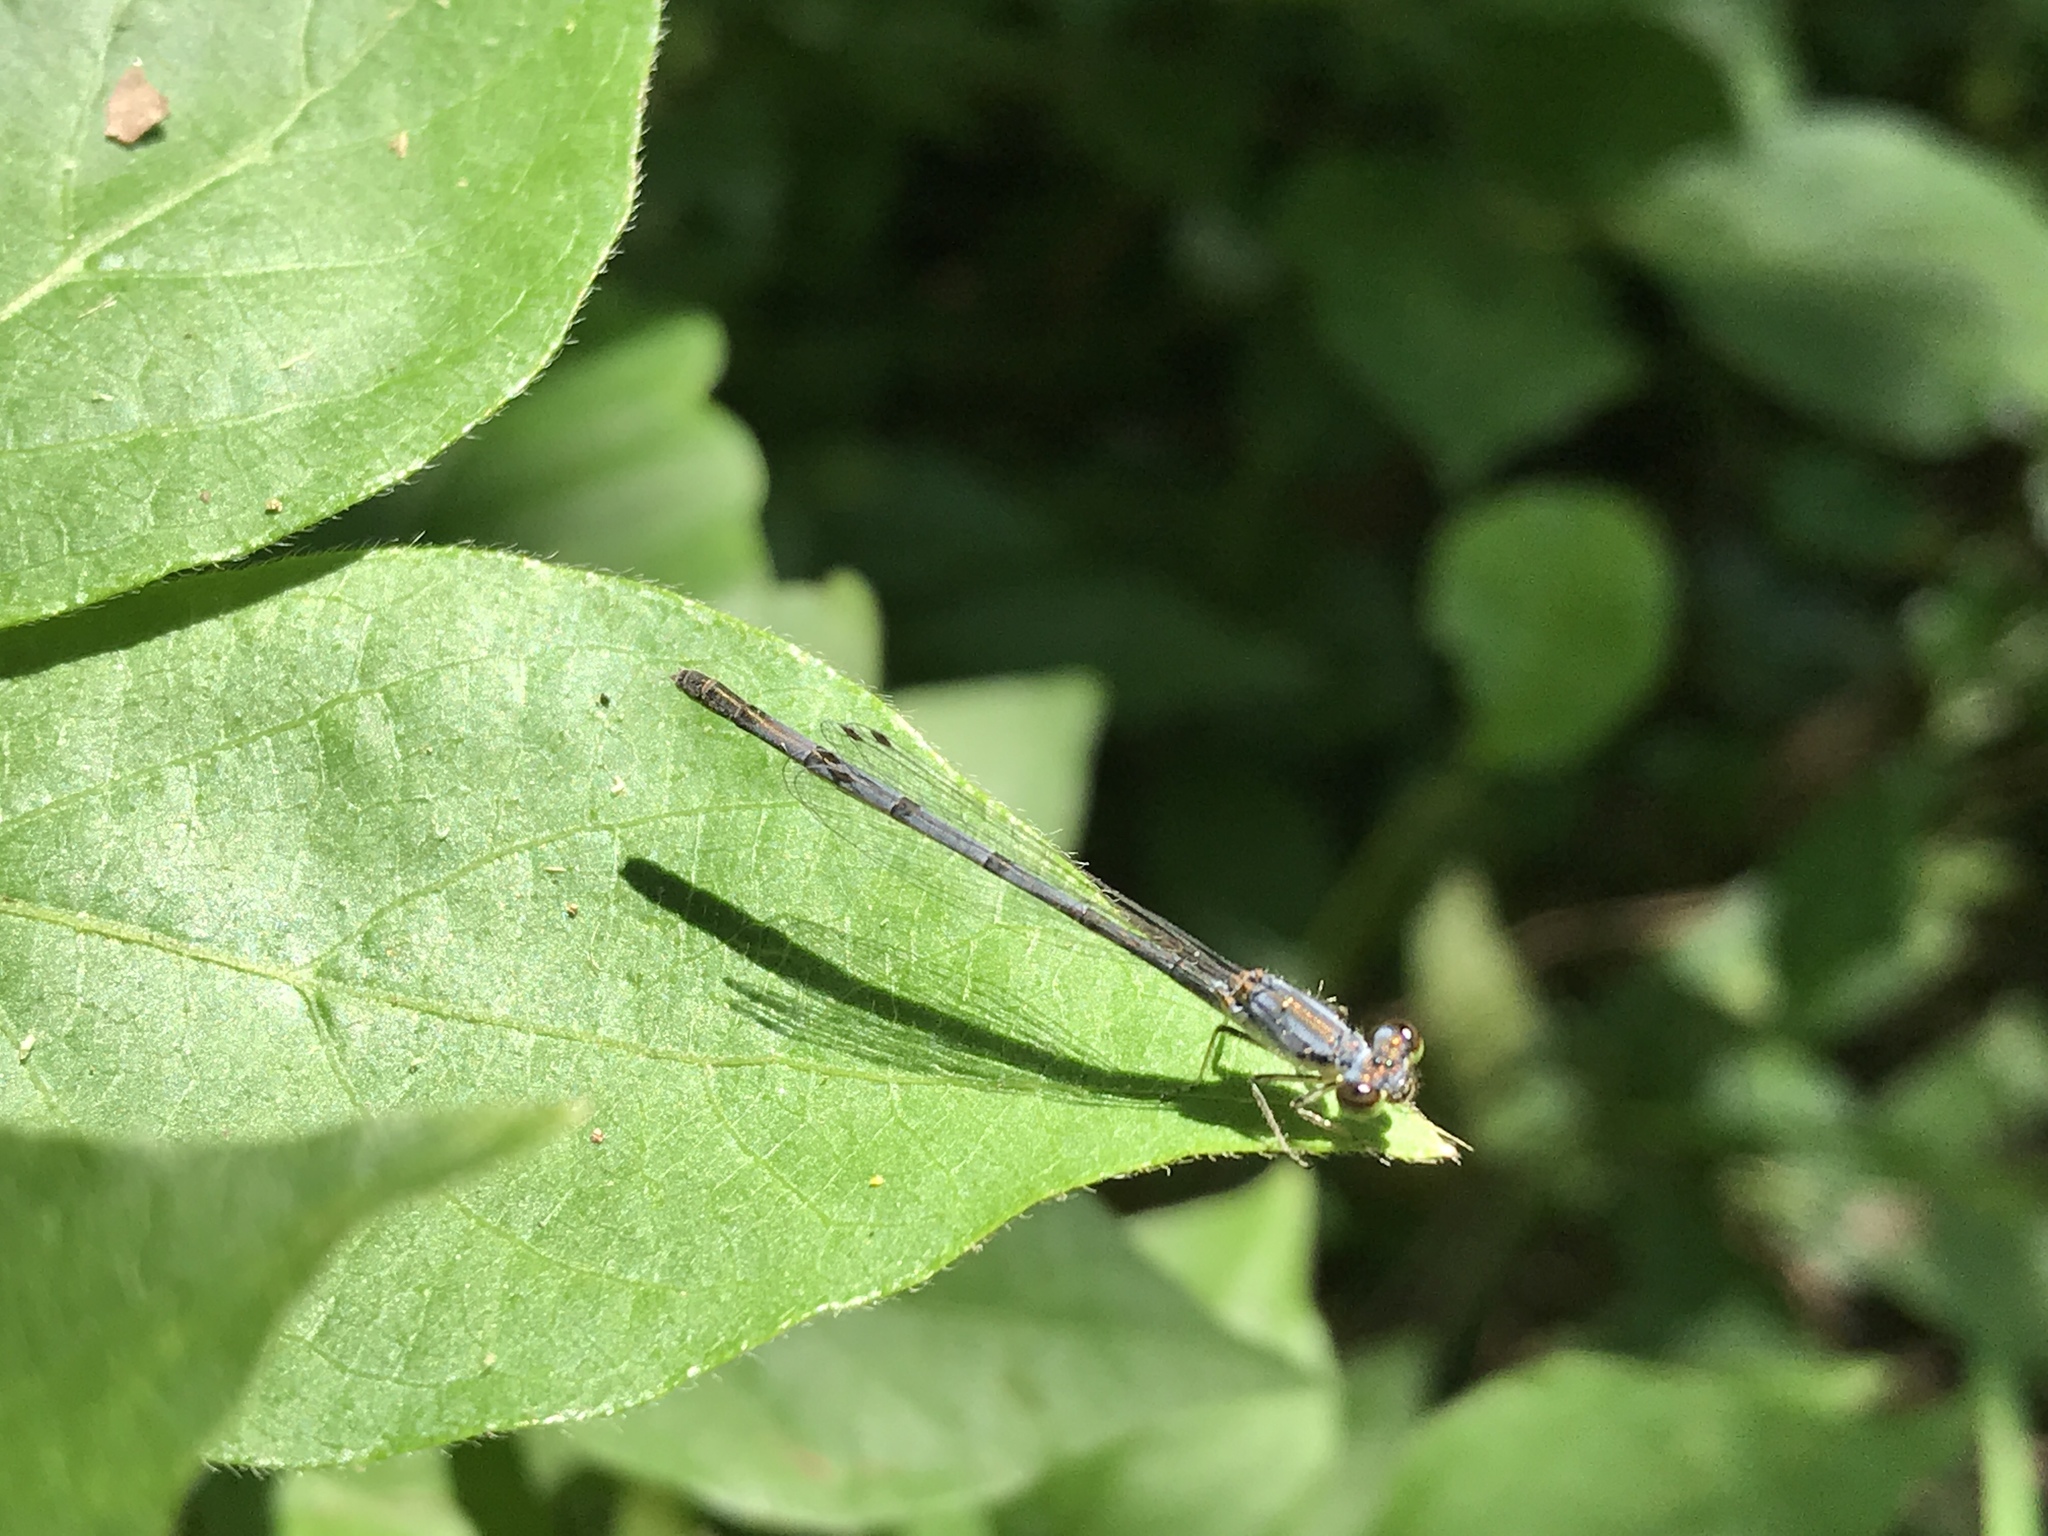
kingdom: Animalia
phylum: Arthropoda
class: Insecta
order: Odonata
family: Coenagrionidae
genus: Ischnura
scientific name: Ischnura posita
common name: Fragile forktail
